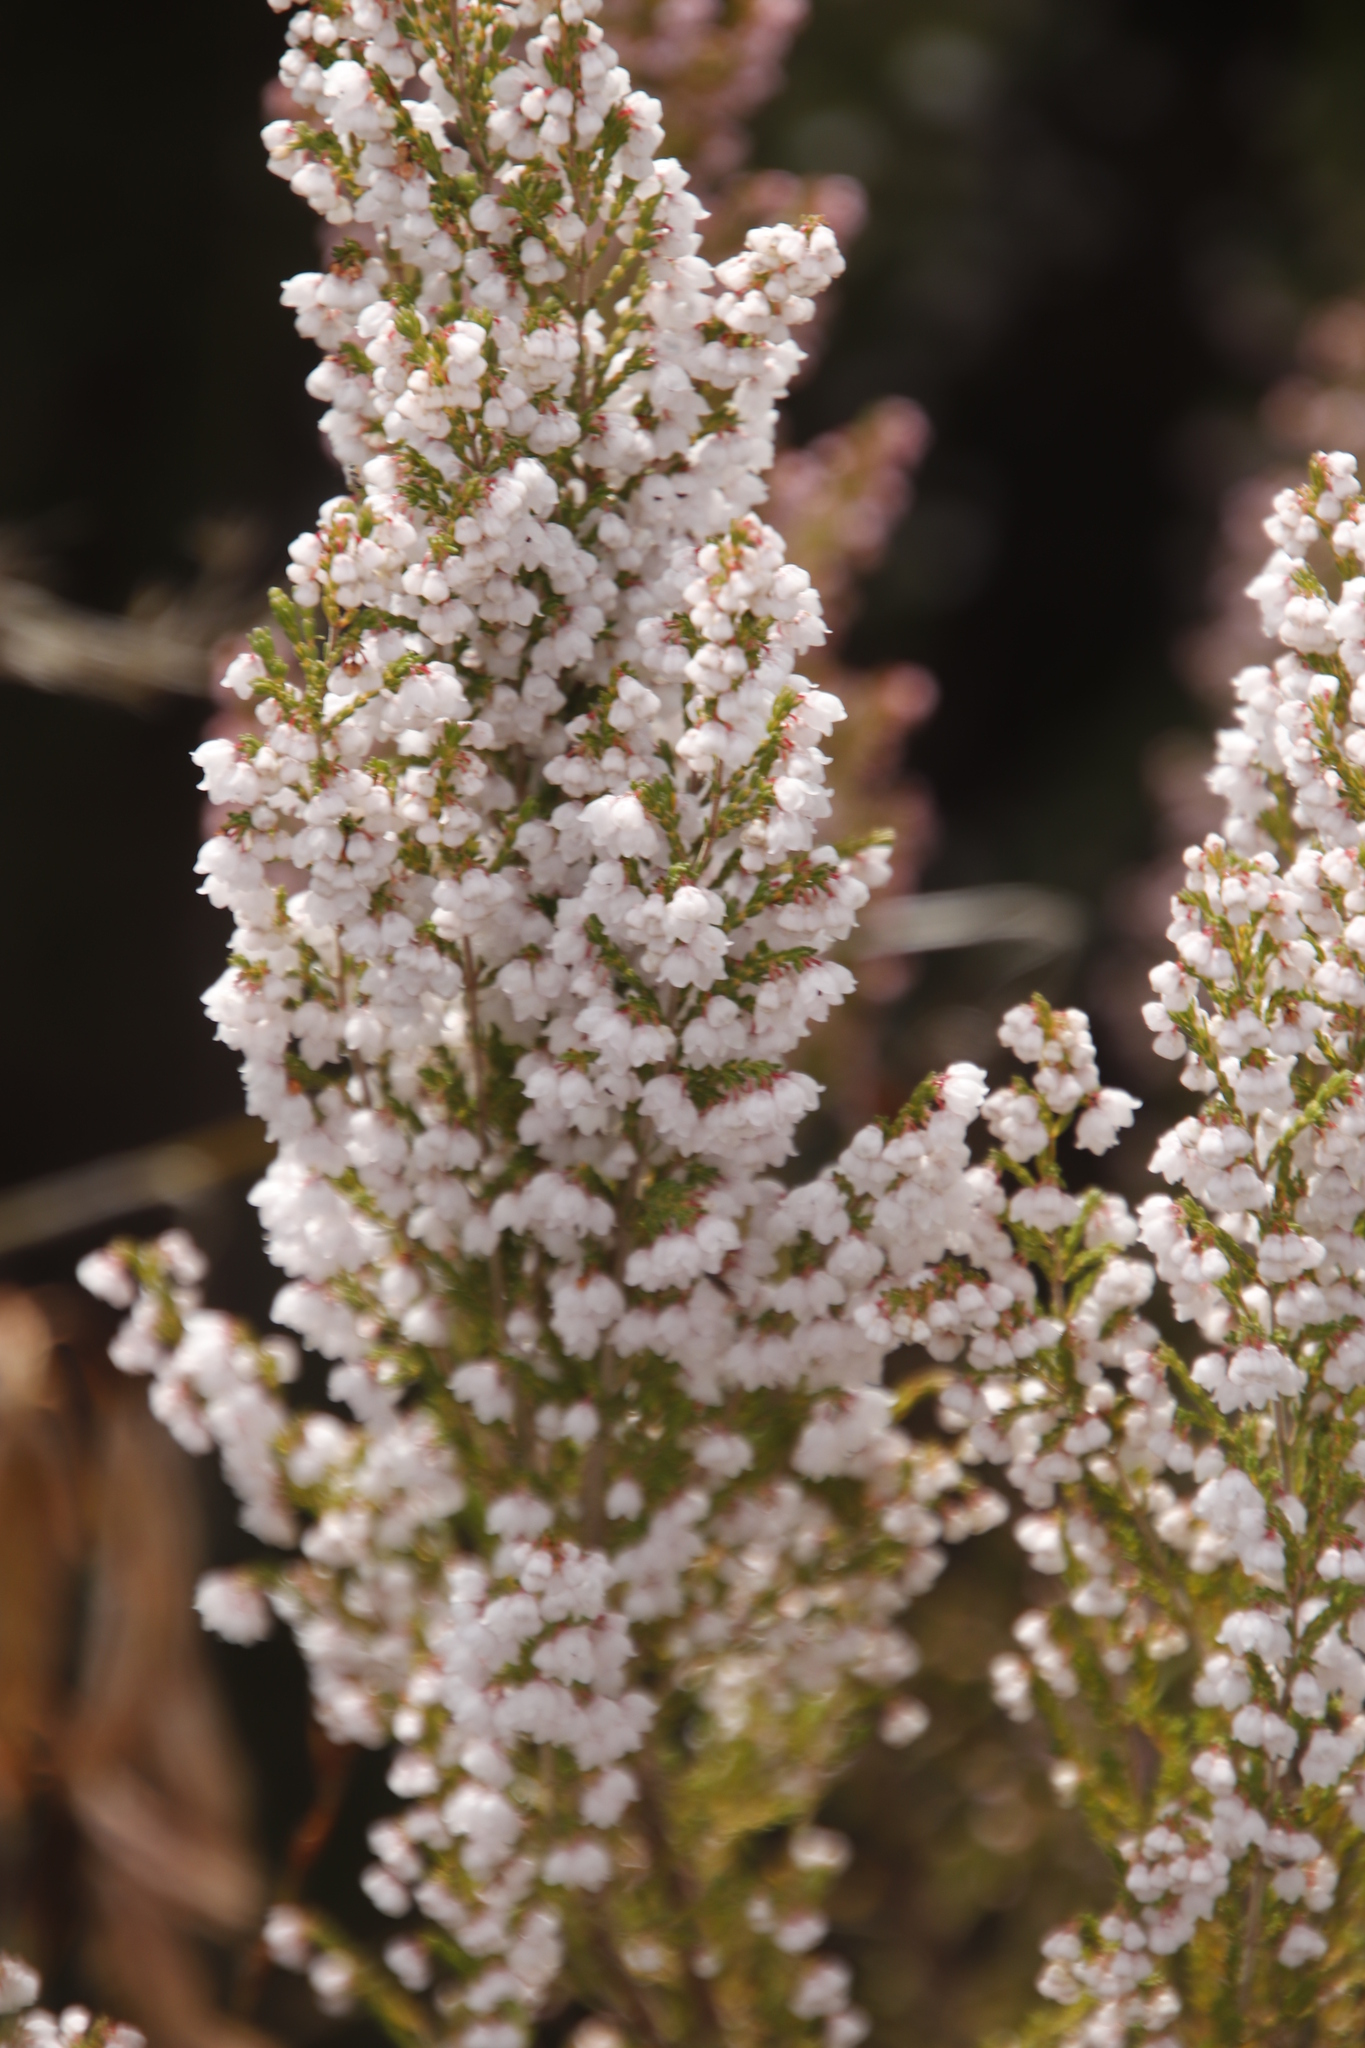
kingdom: Plantae
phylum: Tracheophyta
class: Magnoliopsida
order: Ericales
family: Ericaceae
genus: Erica
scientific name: Erica quadrangularis
